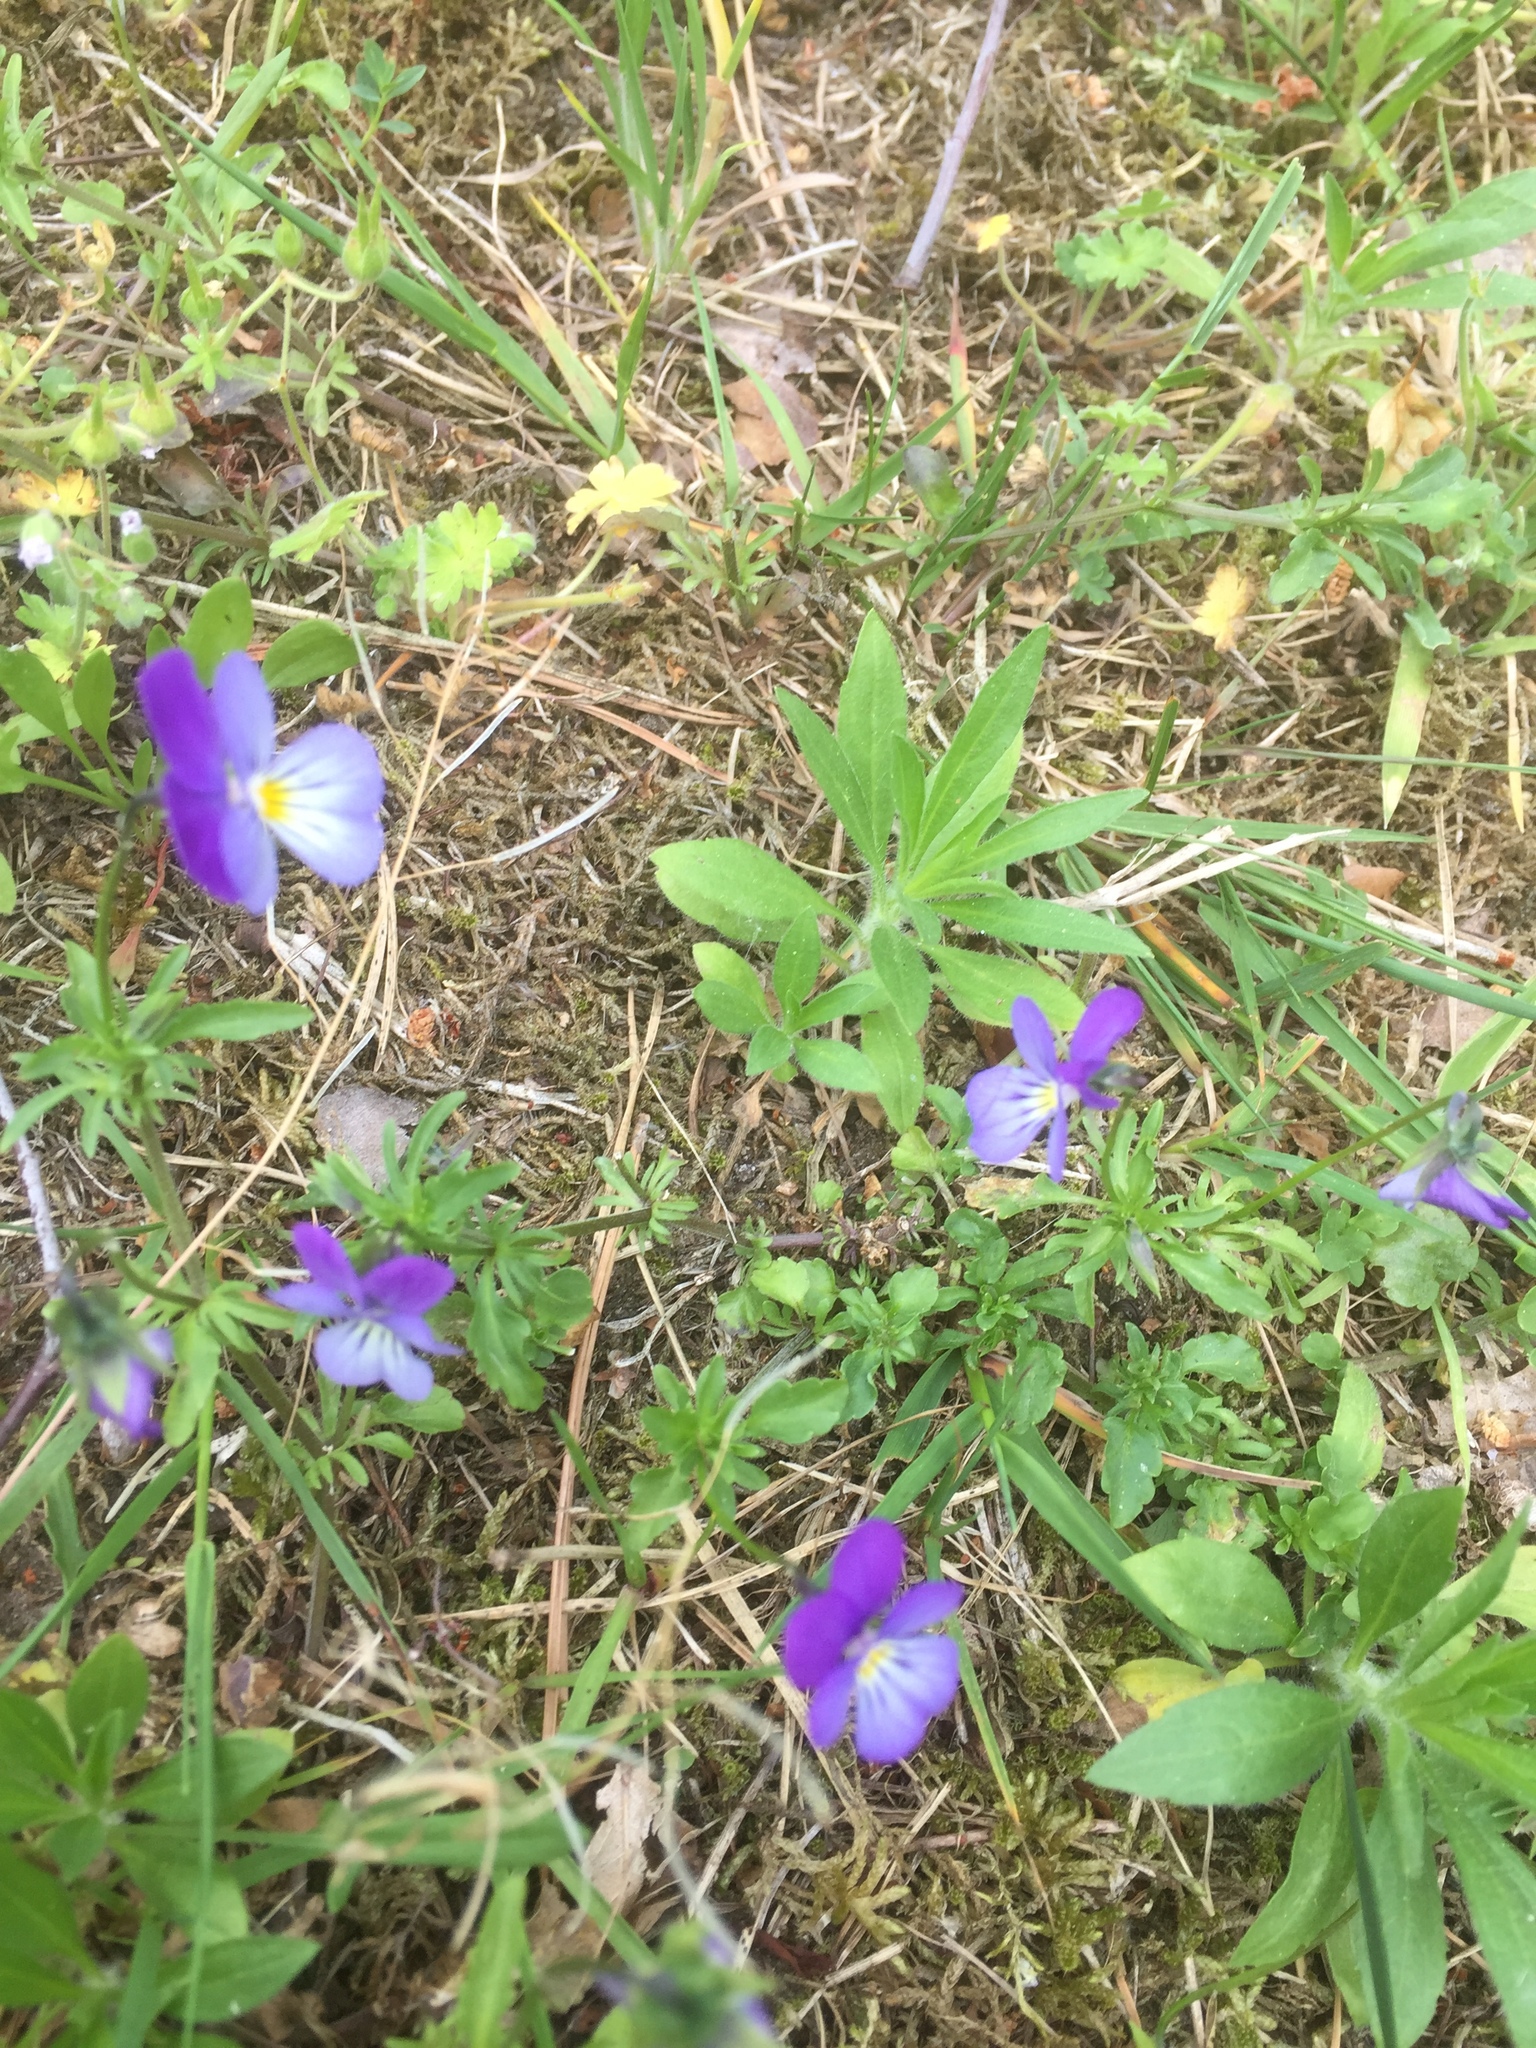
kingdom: Plantae
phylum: Tracheophyta
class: Magnoliopsida
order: Malpighiales
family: Violaceae
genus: Viola
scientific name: Viola tricolor
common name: Pansy
